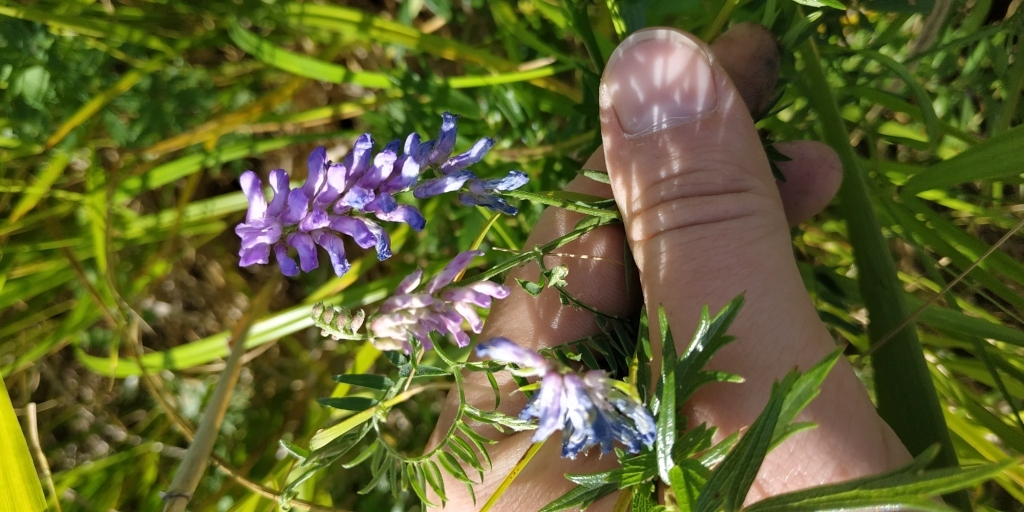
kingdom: Plantae
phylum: Tracheophyta
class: Magnoliopsida
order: Fabales
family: Fabaceae
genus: Vicia
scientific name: Vicia cracca
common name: Bird vetch
